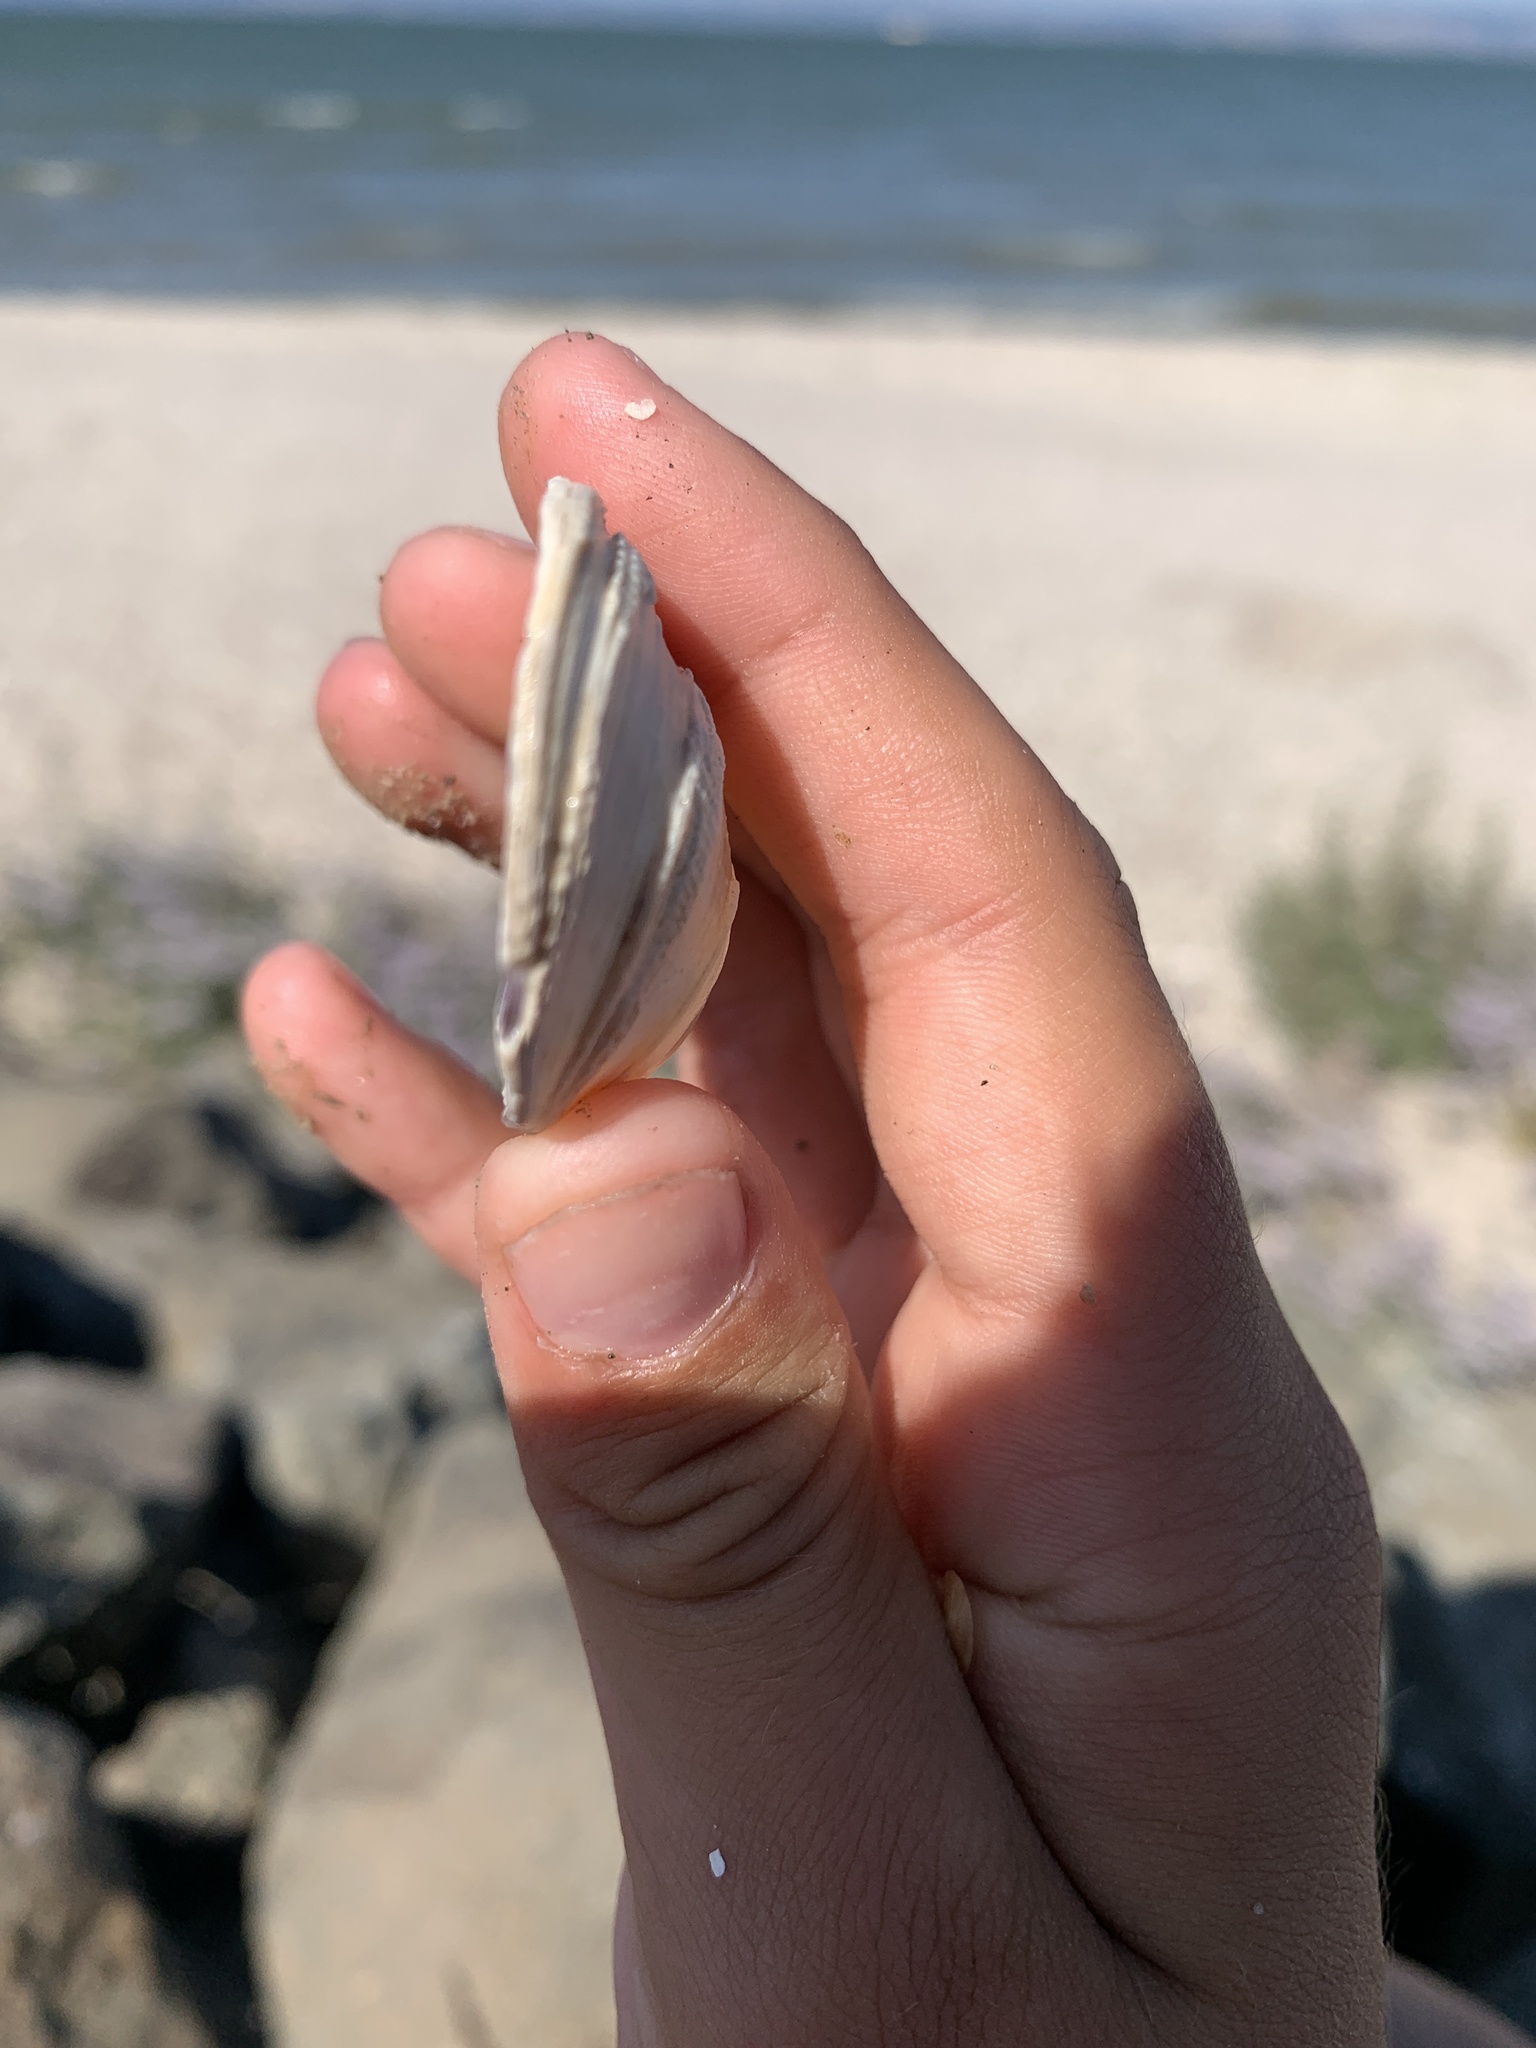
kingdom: Animalia
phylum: Mollusca
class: Bivalvia
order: Venerida
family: Veneridae
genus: Ruditapes
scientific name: Ruditapes philippinarum
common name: Manila clam
